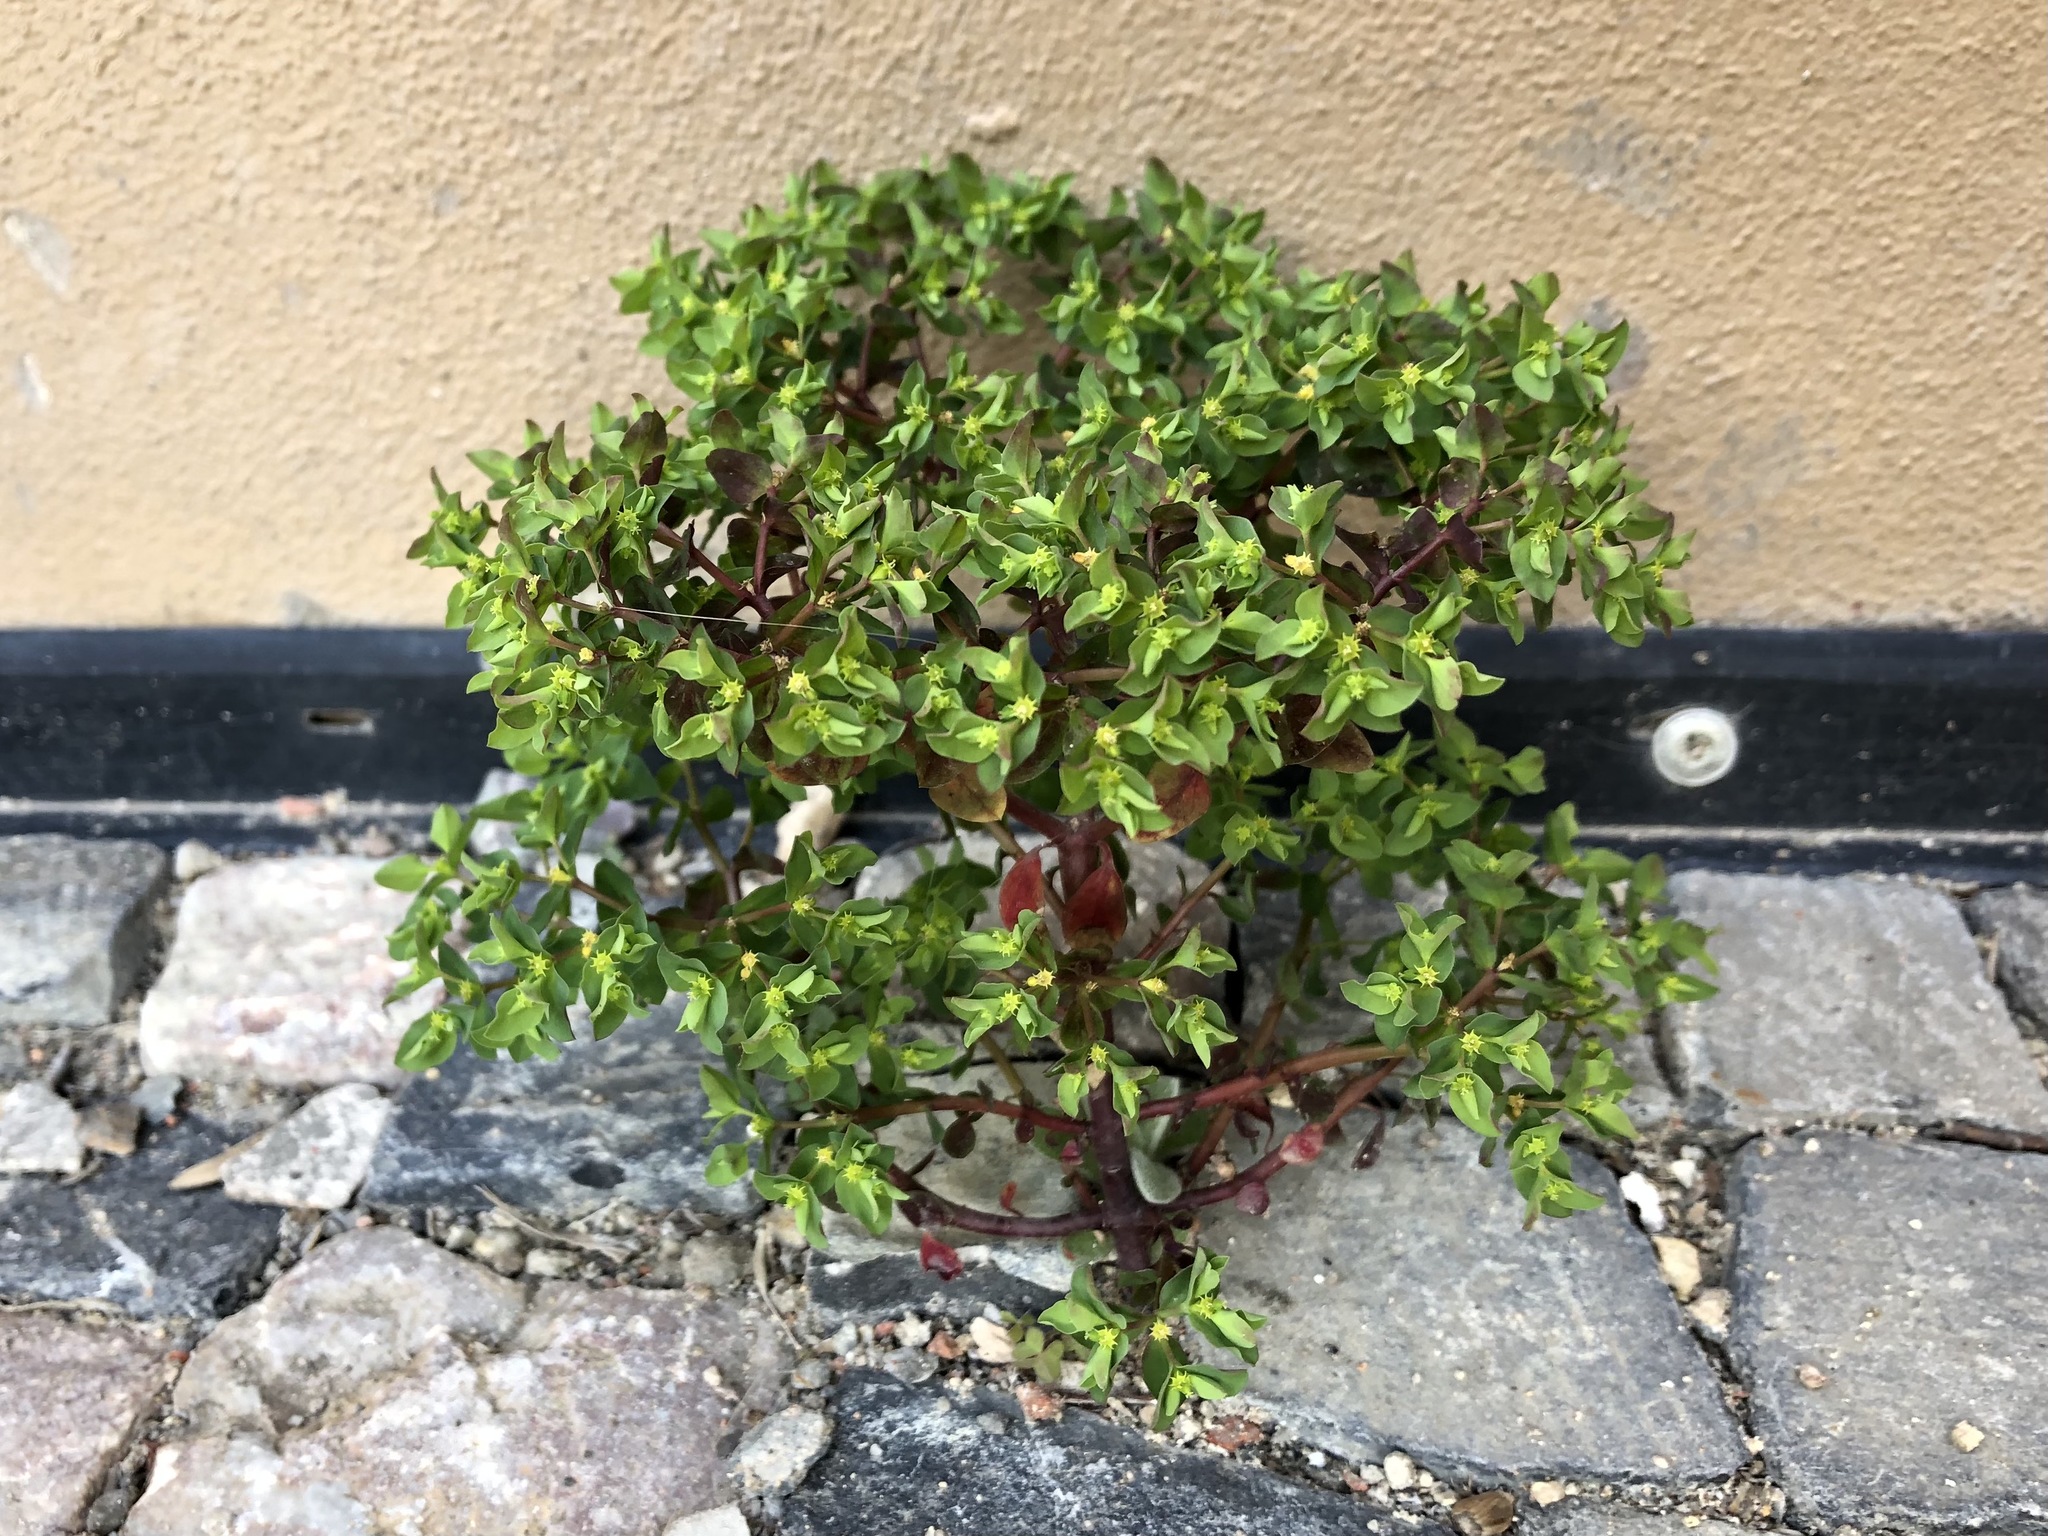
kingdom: Plantae
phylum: Tracheophyta
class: Magnoliopsida
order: Malpighiales
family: Euphorbiaceae
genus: Euphorbia
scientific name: Euphorbia peplus
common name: Petty spurge
